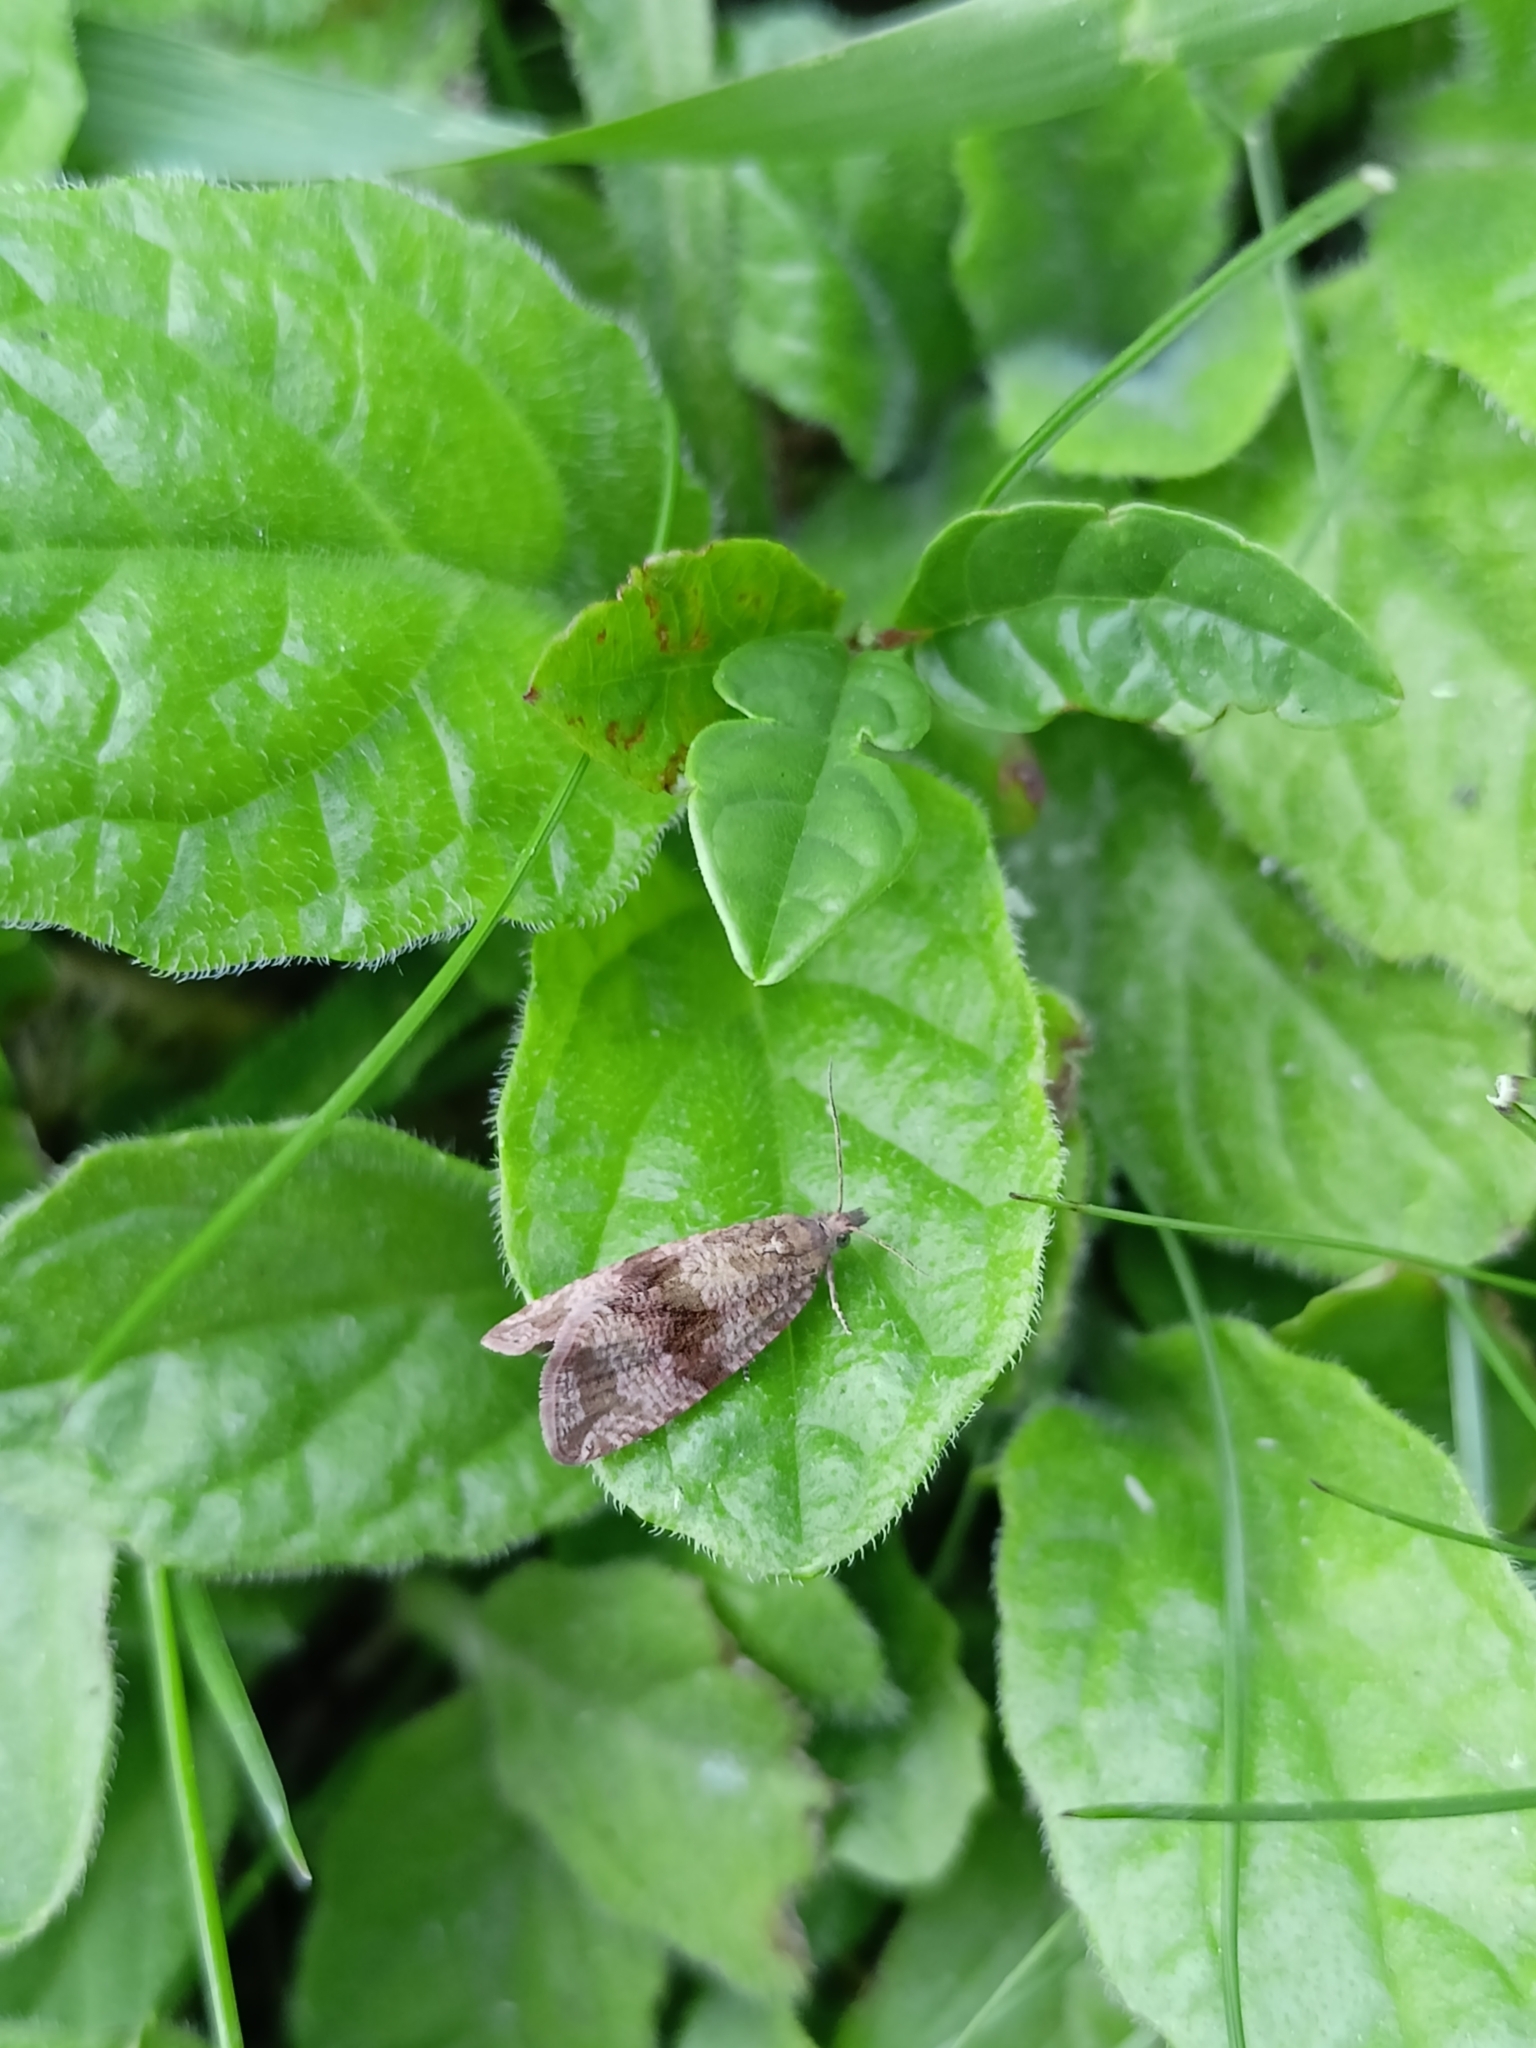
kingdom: Animalia
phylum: Arthropoda
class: Insecta
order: Lepidoptera
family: Tortricidae
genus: Celypha
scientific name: Celypha striana
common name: Barred marble
